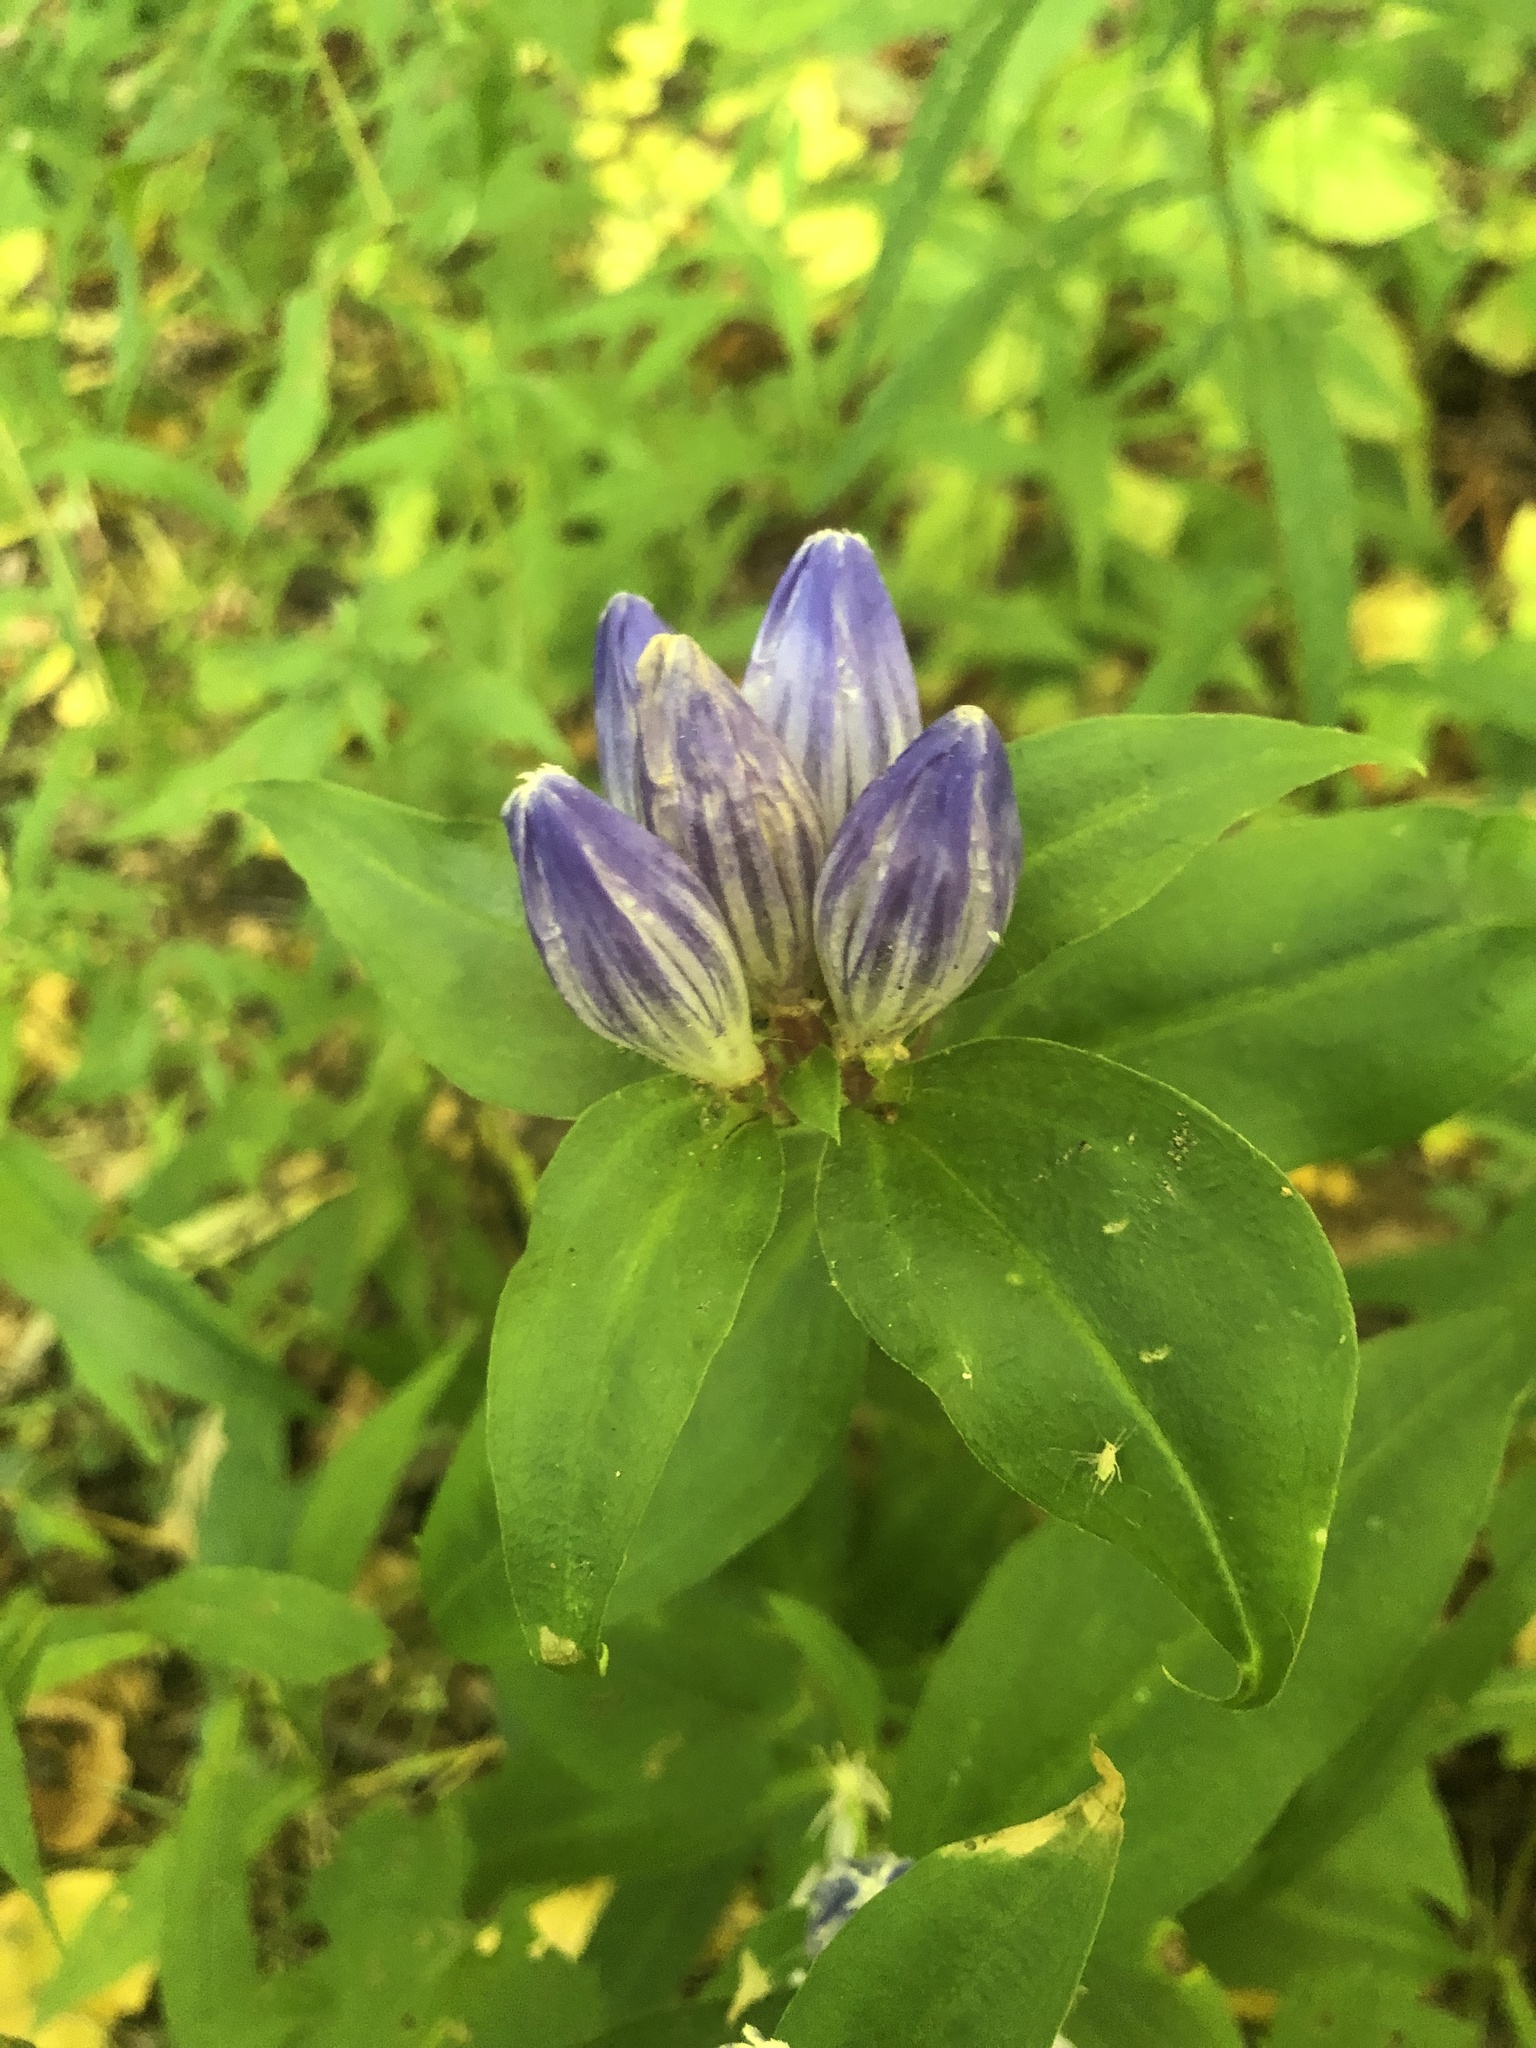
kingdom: Plantae
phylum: Tracheophyta
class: Magnoliopsida
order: Gentianales
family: Gentianaceae
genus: Gentiana
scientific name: Gentiana clausa
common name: Blind gentian
